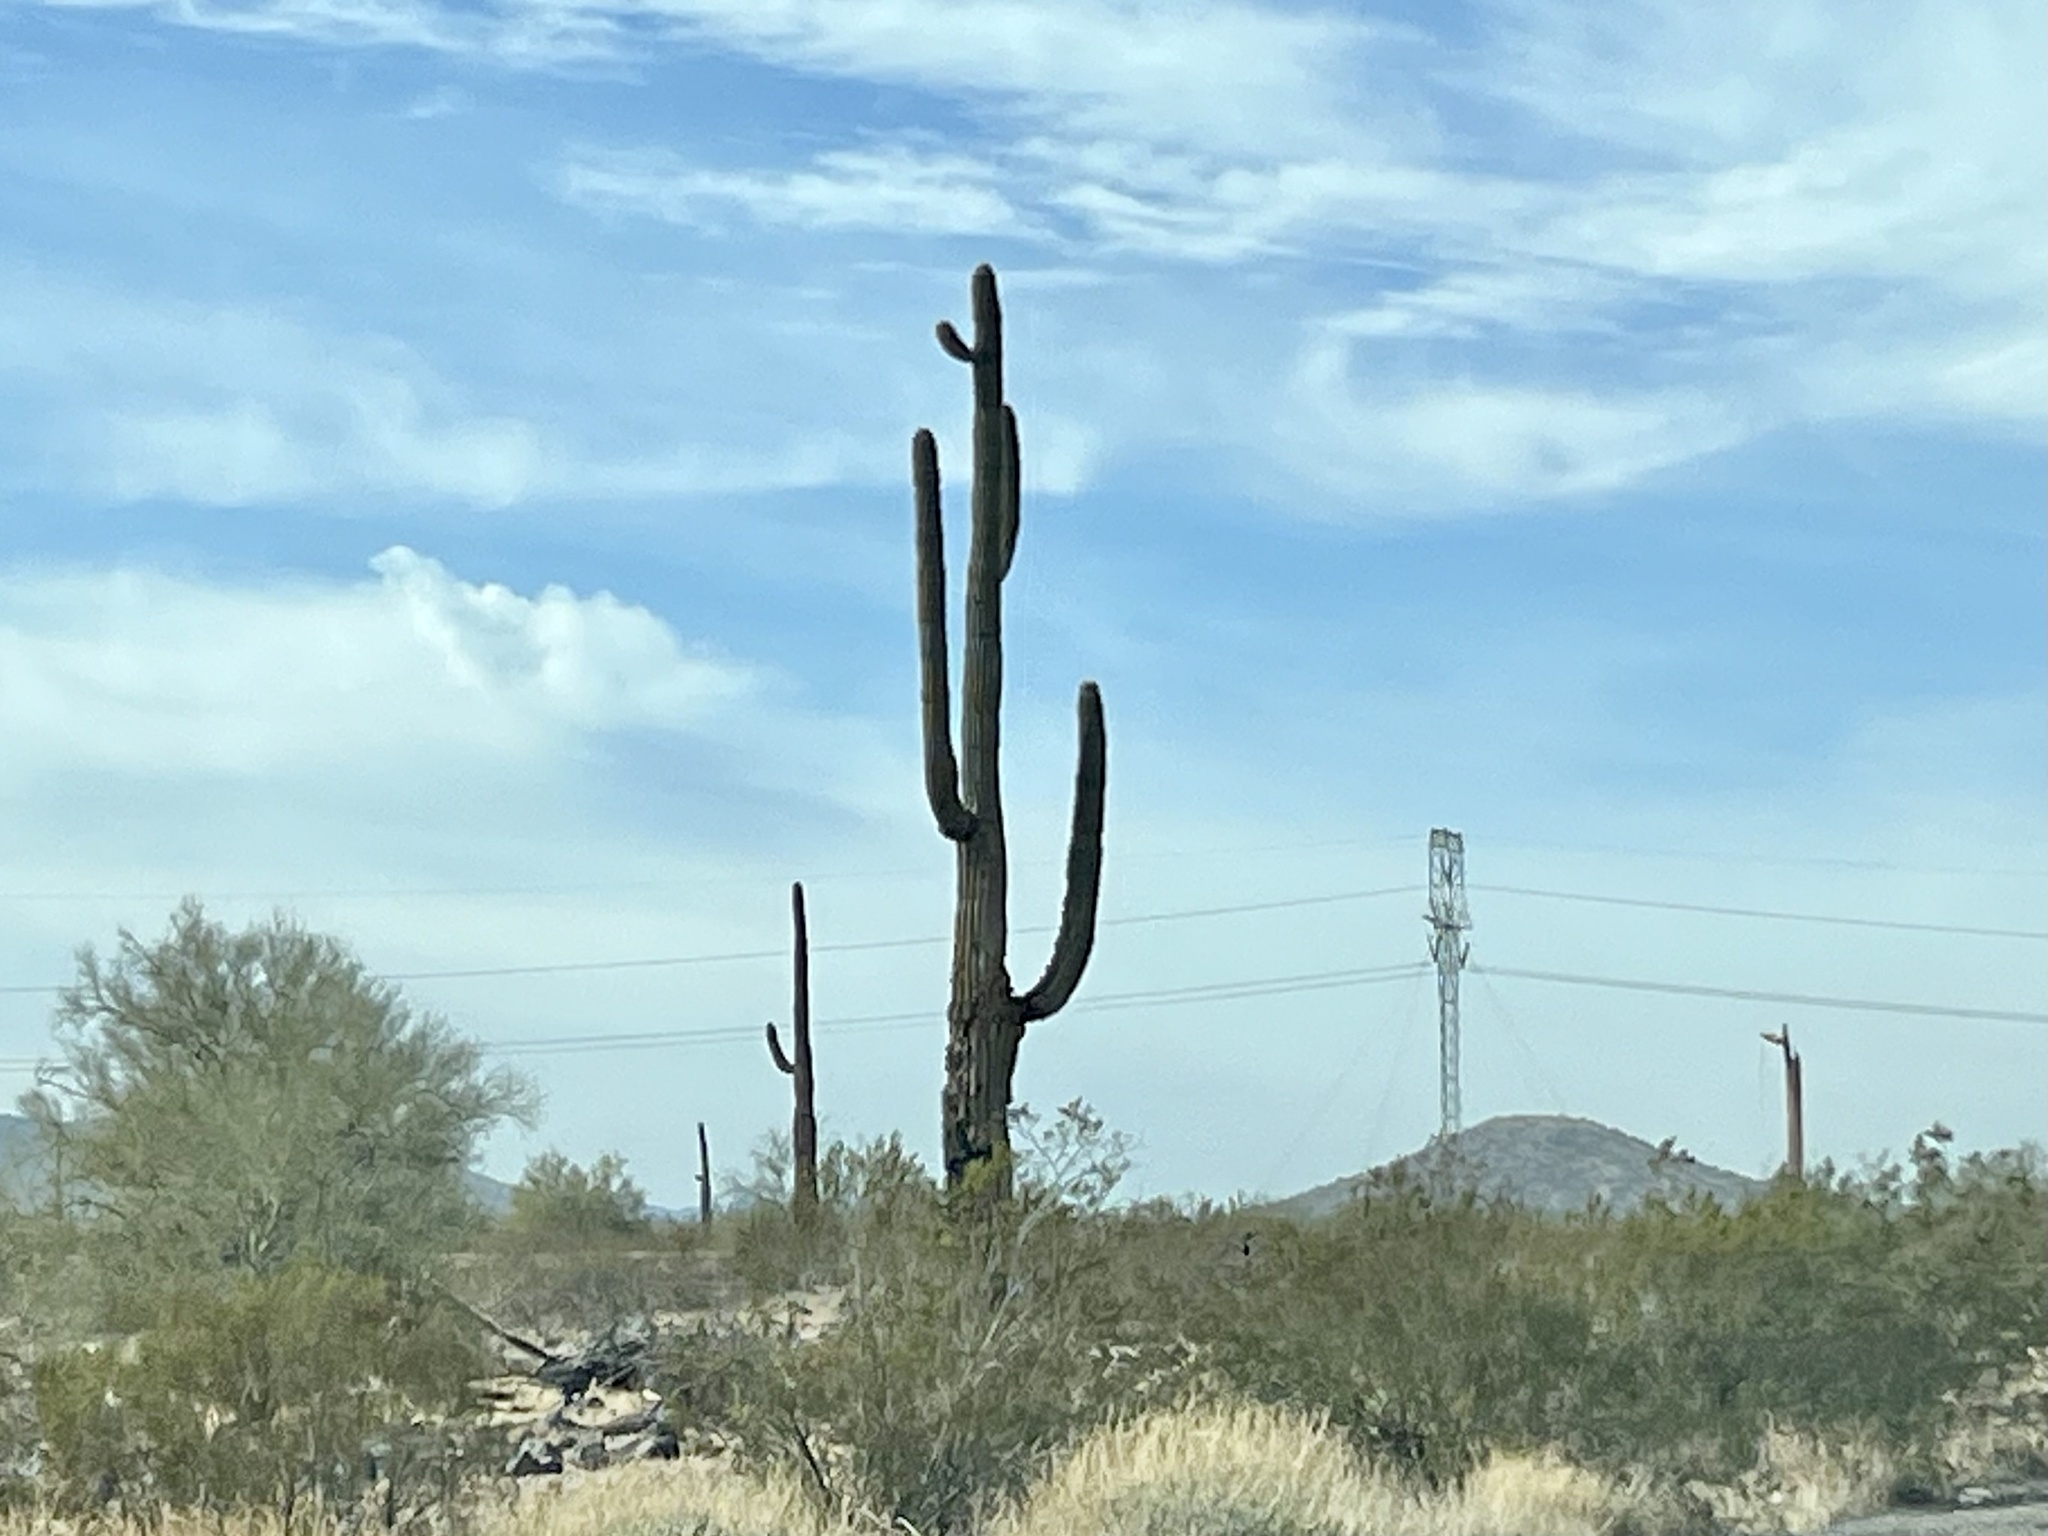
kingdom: Plantae
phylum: Tracheophyta
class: Magnoliopsida
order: Caryophyllales
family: Cactaceae
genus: Carnegiea
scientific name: Carnegiea gigantea
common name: Saguaro
